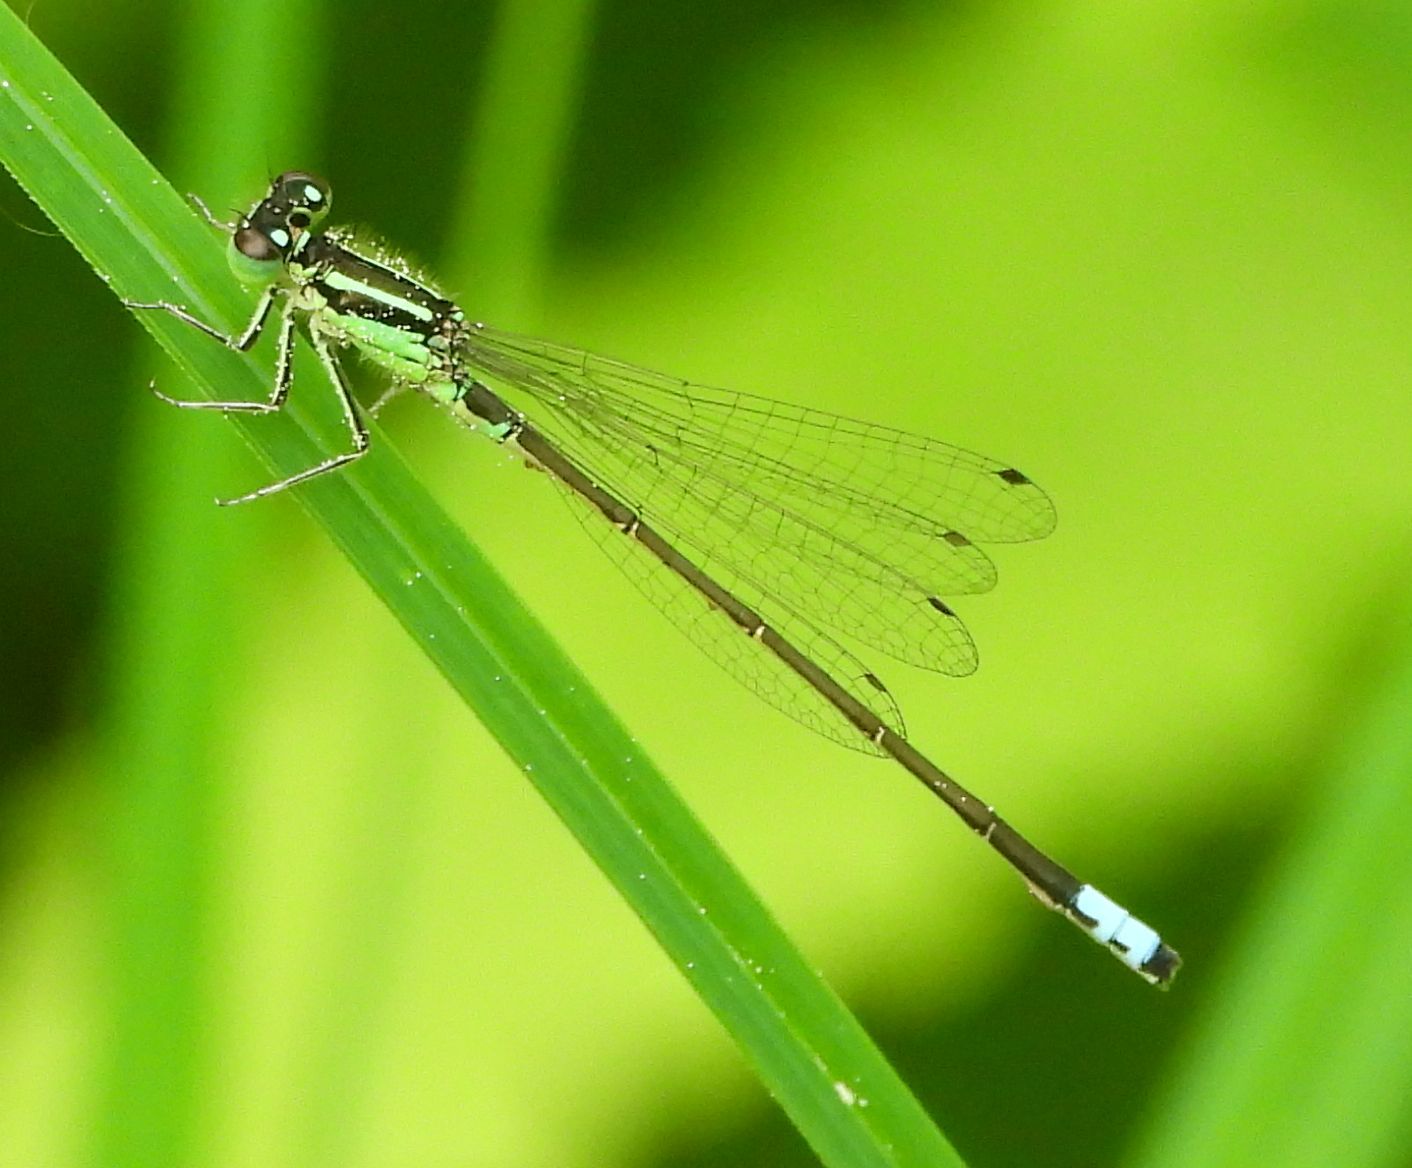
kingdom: Animalia
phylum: Arthropoda
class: Insecta
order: Odonata
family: Coenagrionidae
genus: Ischnura
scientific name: Ischnura verticalis
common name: Eastern forktail
